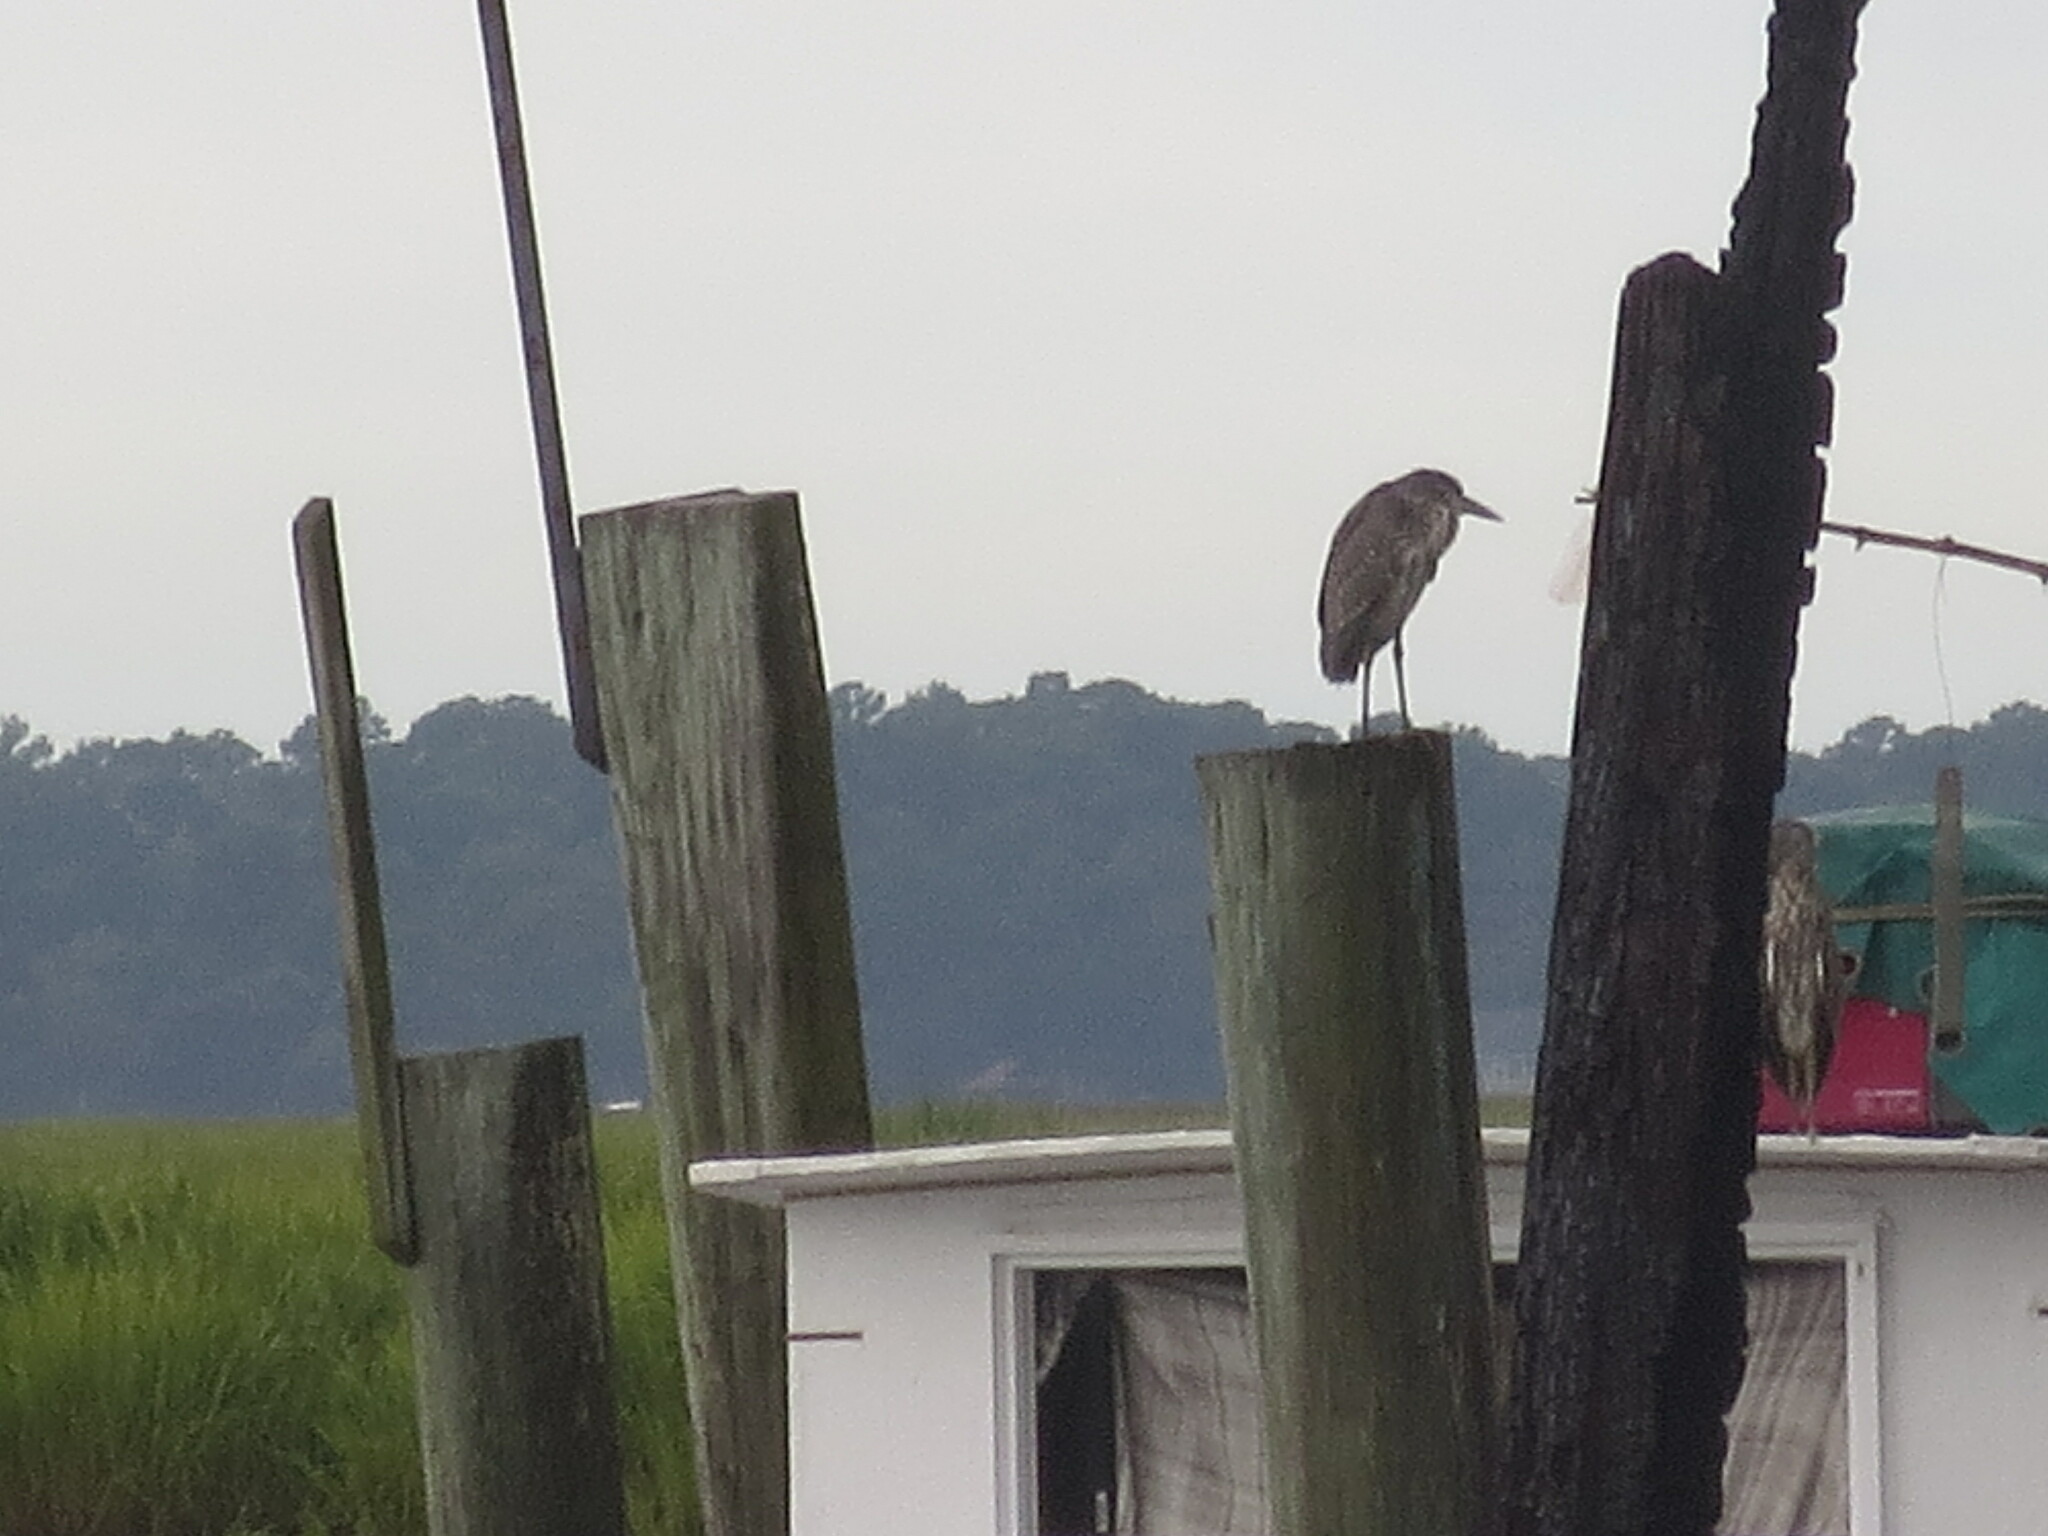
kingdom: Animalia
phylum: Chordata
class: Aves
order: Pelecaniformes
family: Ardeidae
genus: Nyctanassa
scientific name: Nyctanassa violacea
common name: Yellow-crowned night heron
